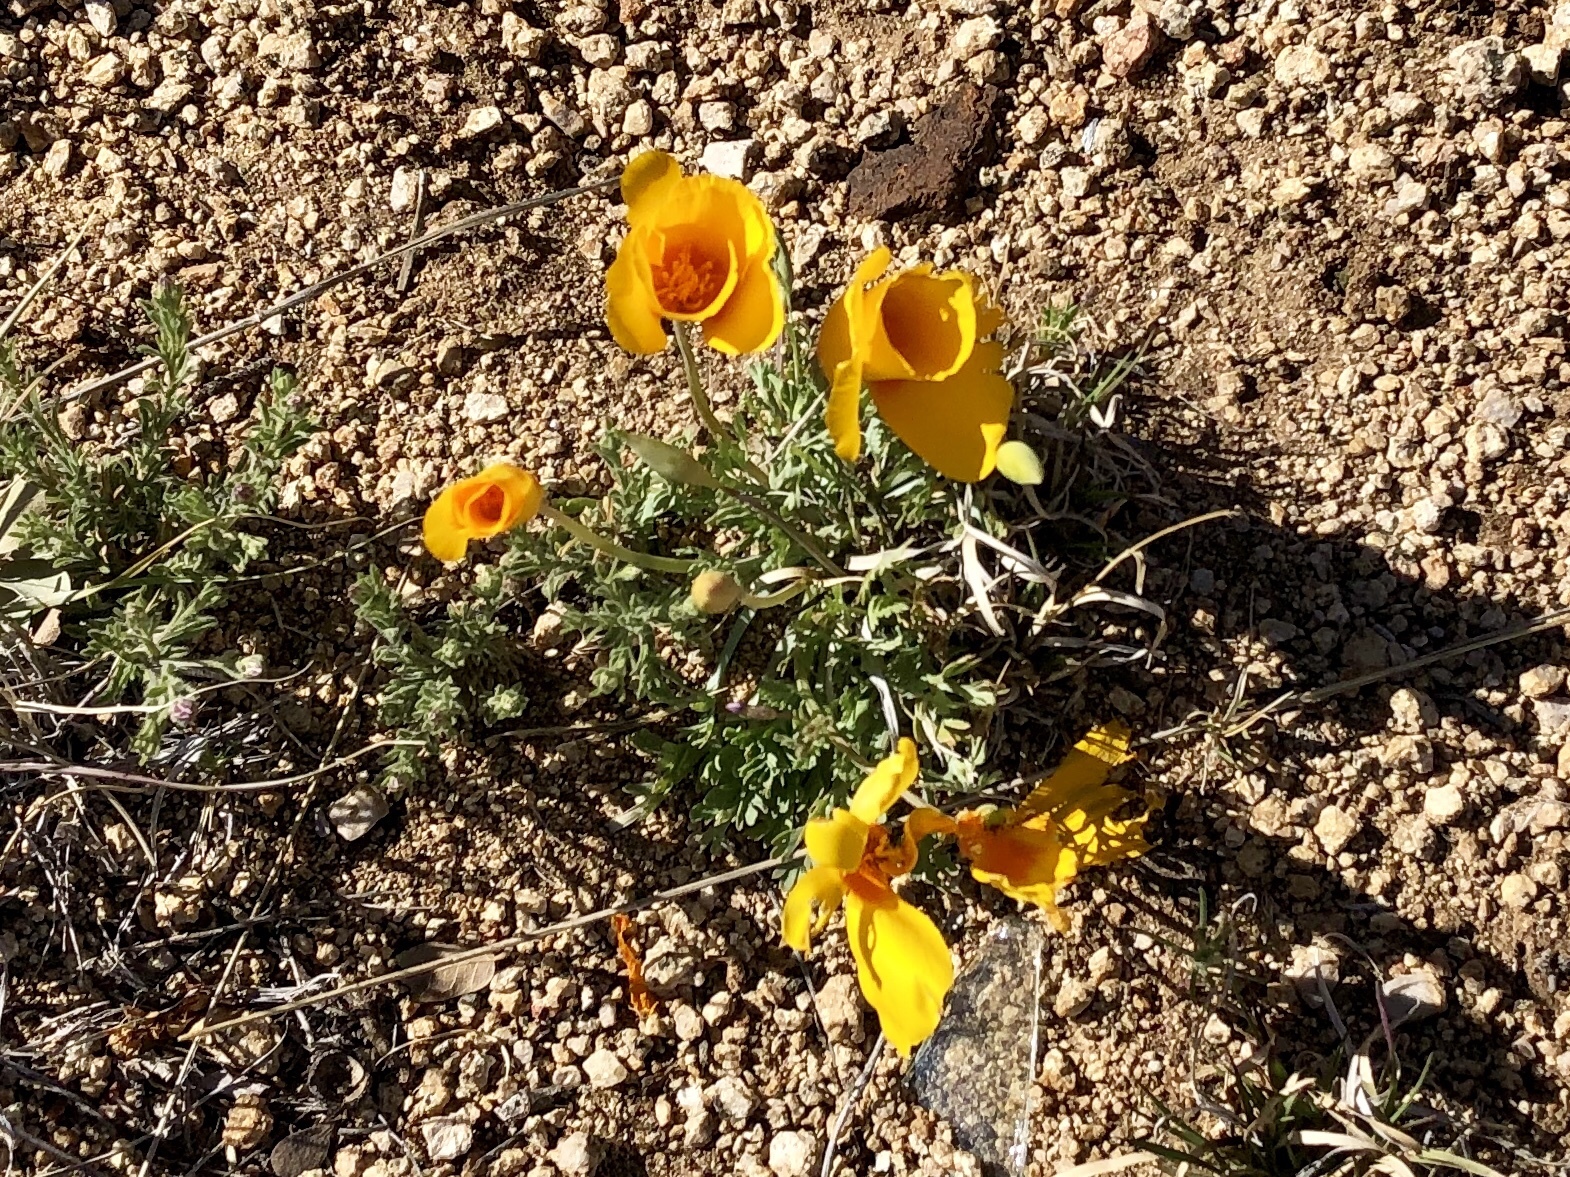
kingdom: Plantae
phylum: Tracheophyta
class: Magnoliopsida
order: Ranunculales
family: Papaveraceae
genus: Eschscholzia
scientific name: Eschscholzia californica
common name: California poppy
